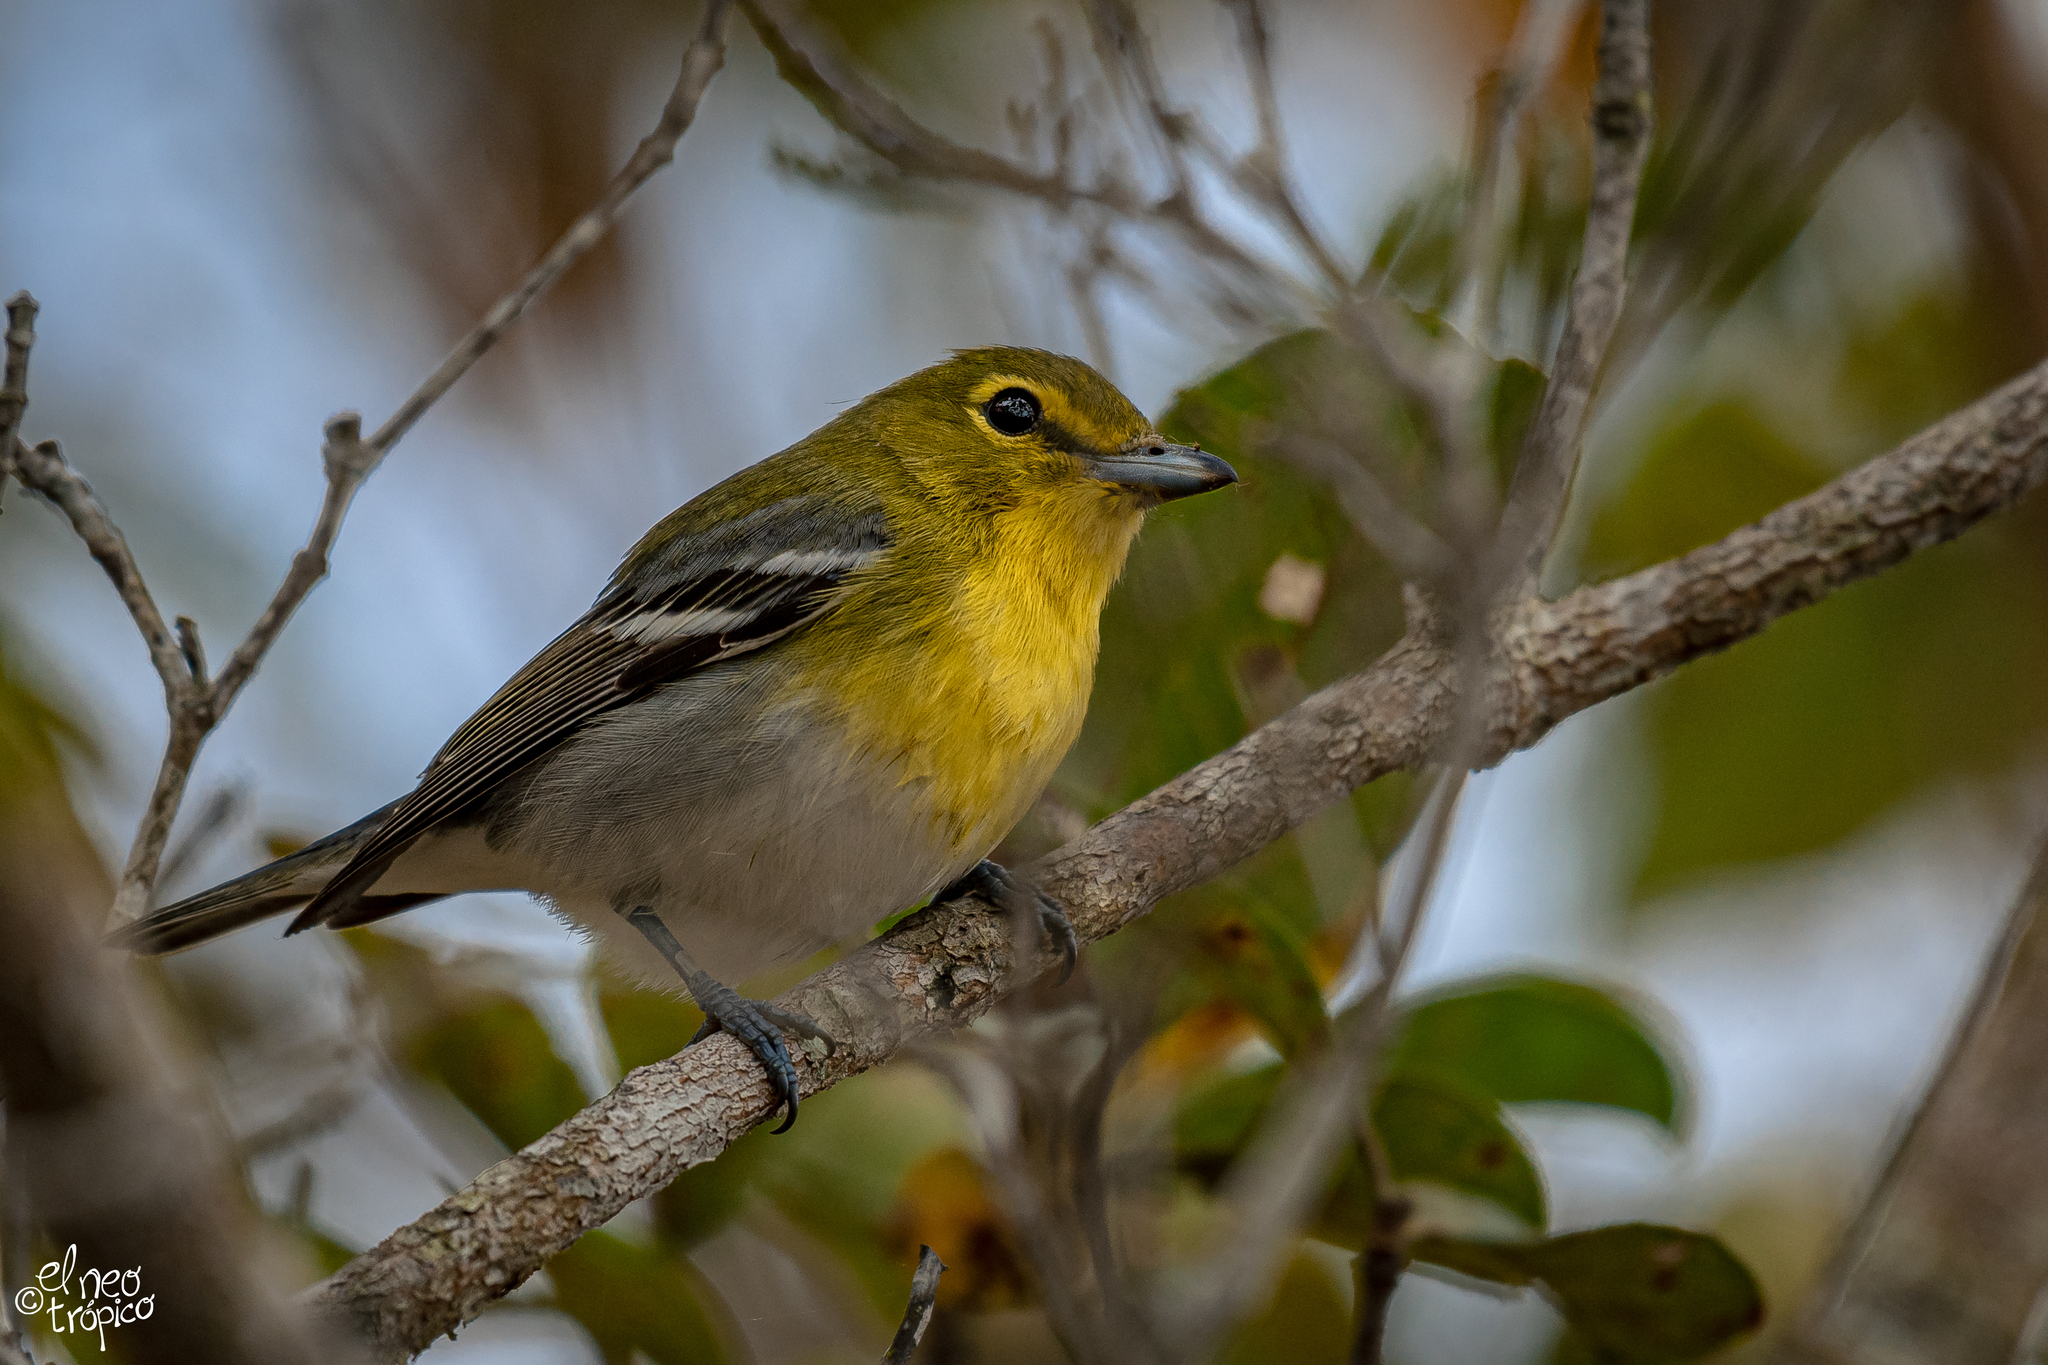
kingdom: Animalia
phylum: Chordata
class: Aves
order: Passeriformes
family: Vireonidae
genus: Vireo
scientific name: Vireo flavifrons
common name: Yellow-throated vireo
